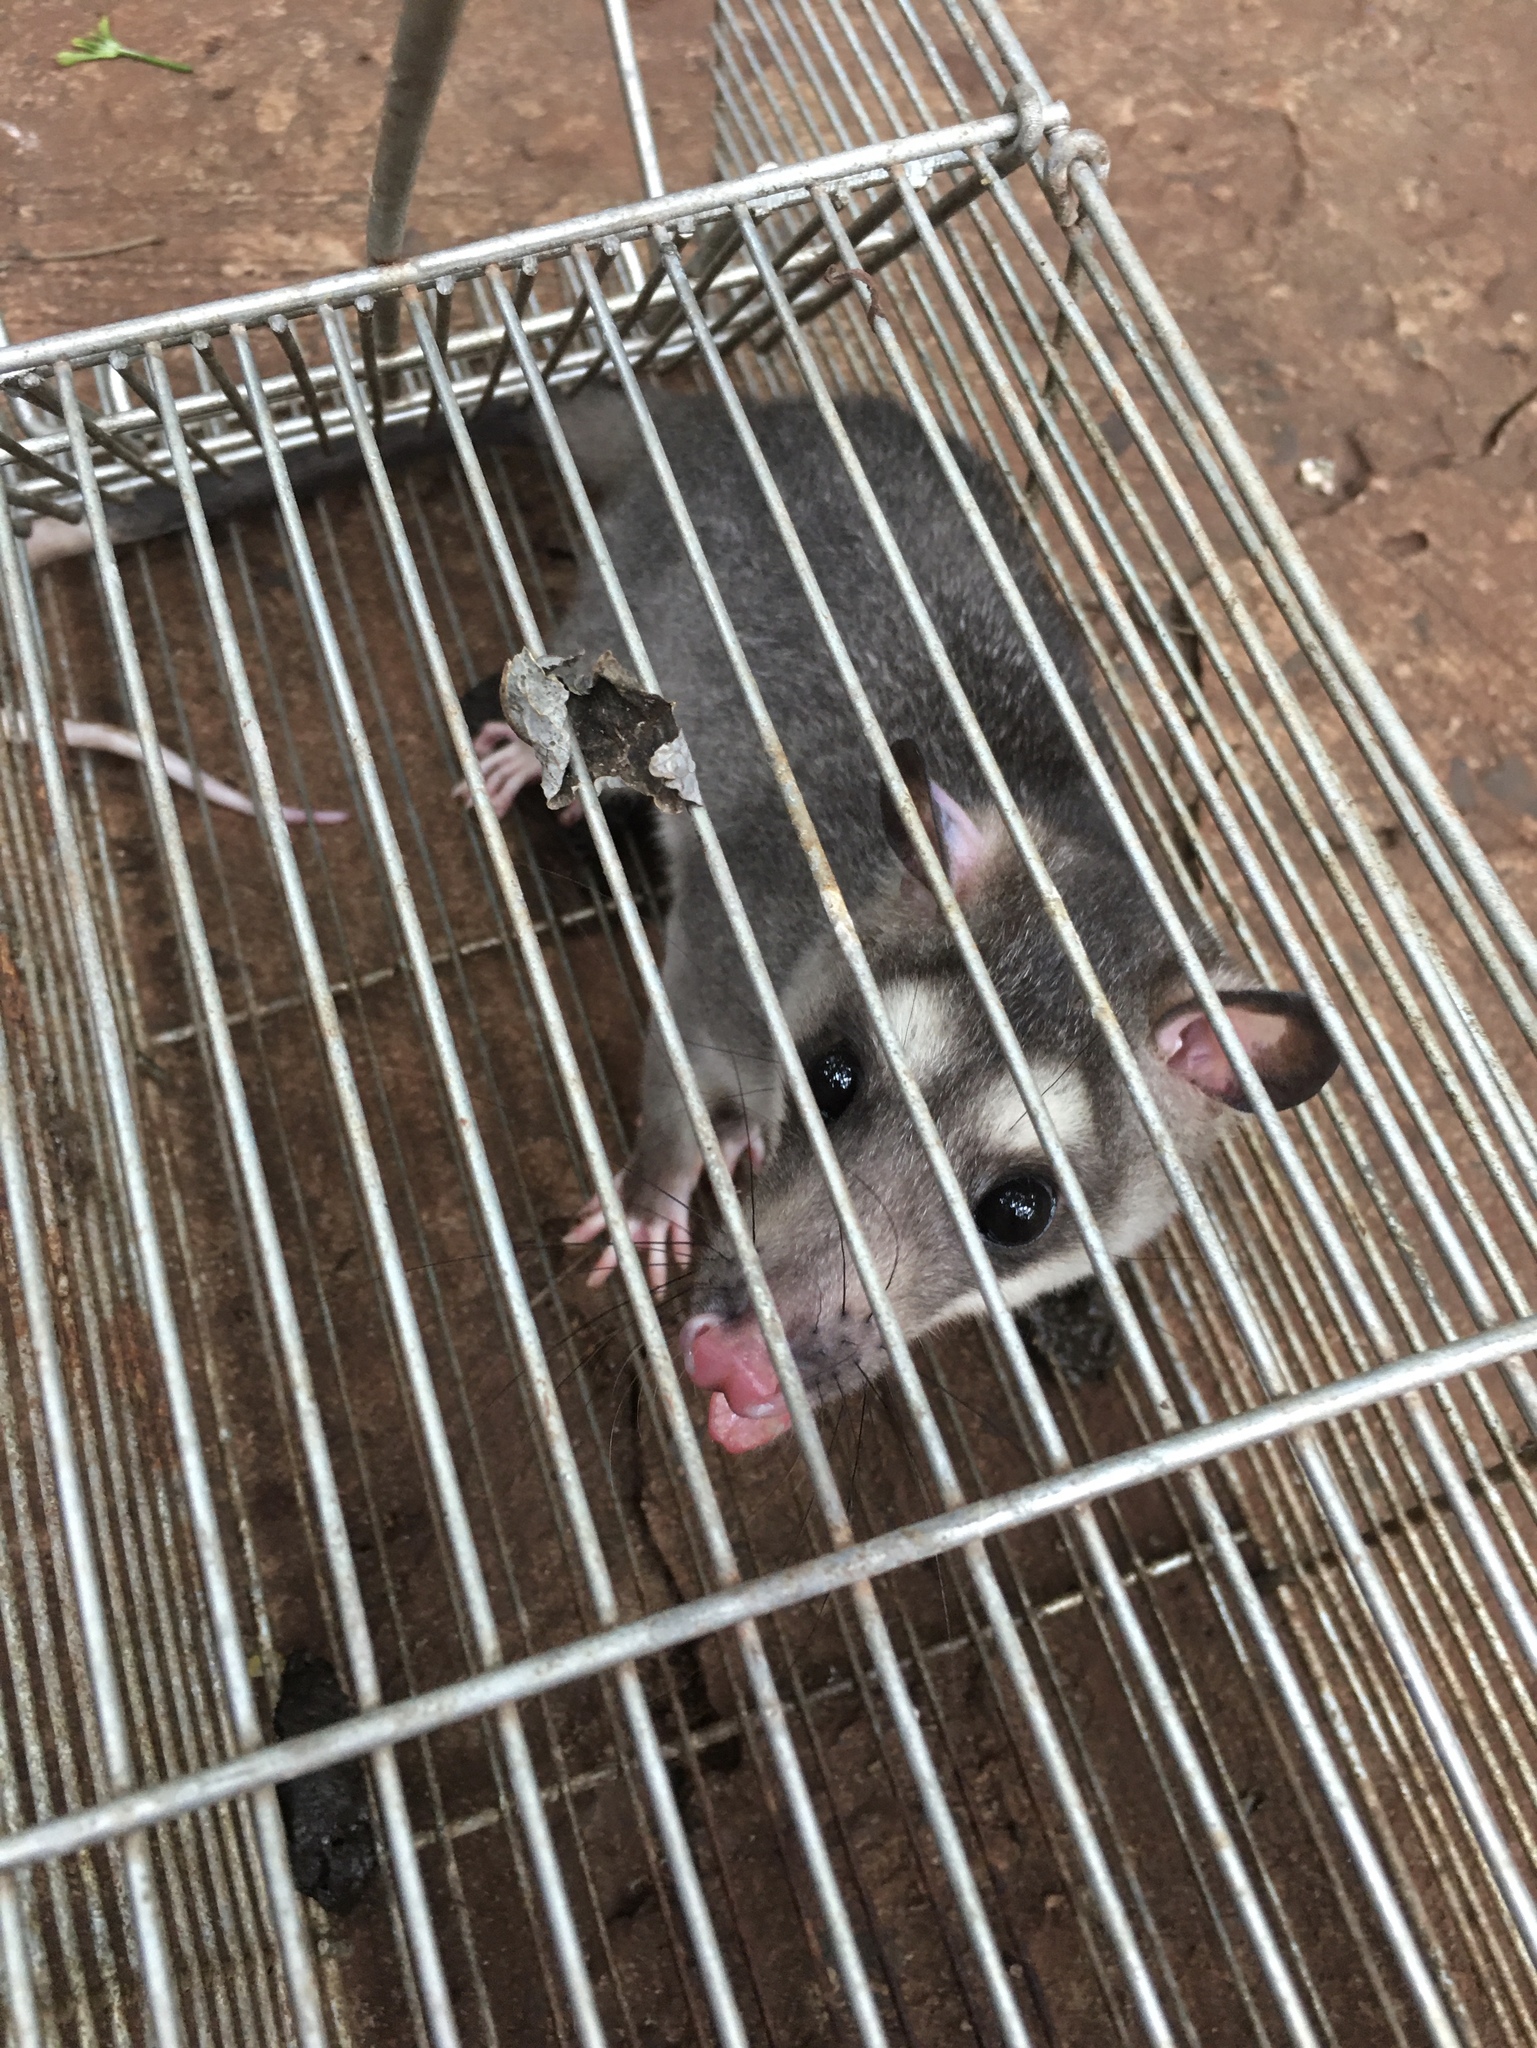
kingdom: Animalia
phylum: Chordata
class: Mammalia
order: Didelphimorphia
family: Didelphidae
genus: Philander
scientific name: Philander
